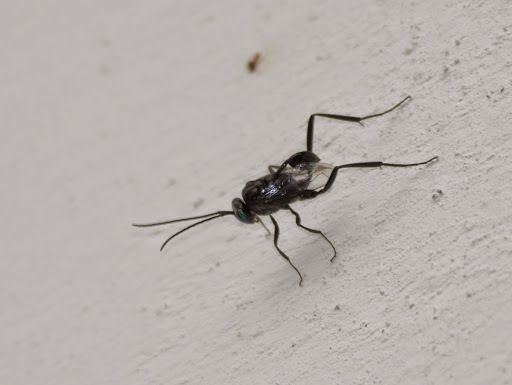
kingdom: Animalia
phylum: Arthropoda
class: Insecta
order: Hymenoptera
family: Evaniidae
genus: Evania
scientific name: Evania appendigaster
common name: Ensign wasp
